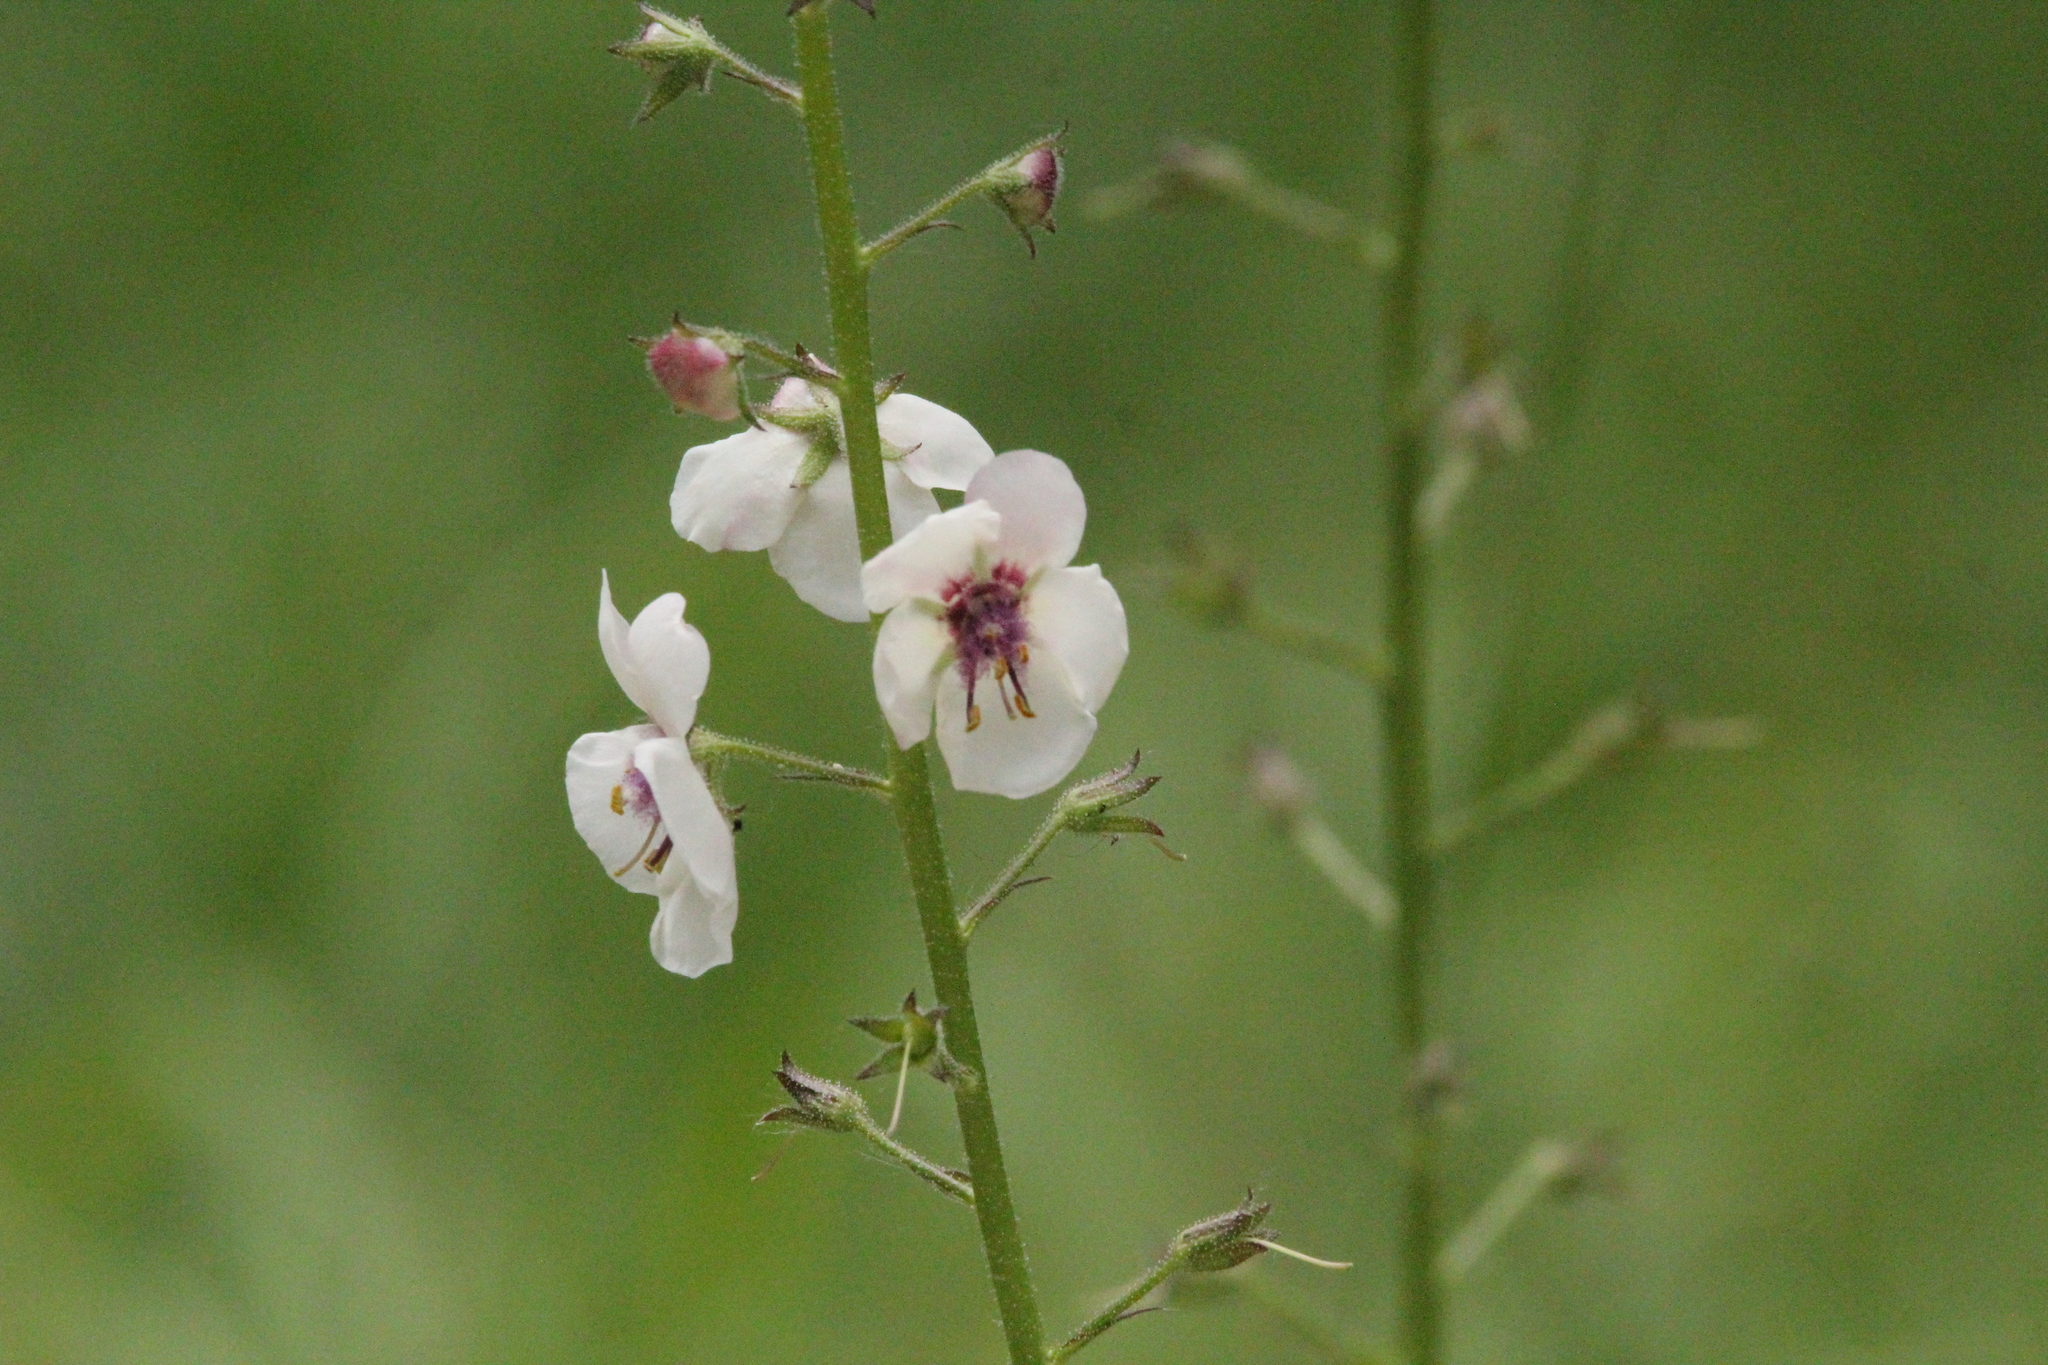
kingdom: Plantae
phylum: Tracheophyta
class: Magnoliopsida
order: Lamiales
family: Scrophulariaceae
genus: Verbascum
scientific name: Verbascum blattaria
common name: Moth mullein
